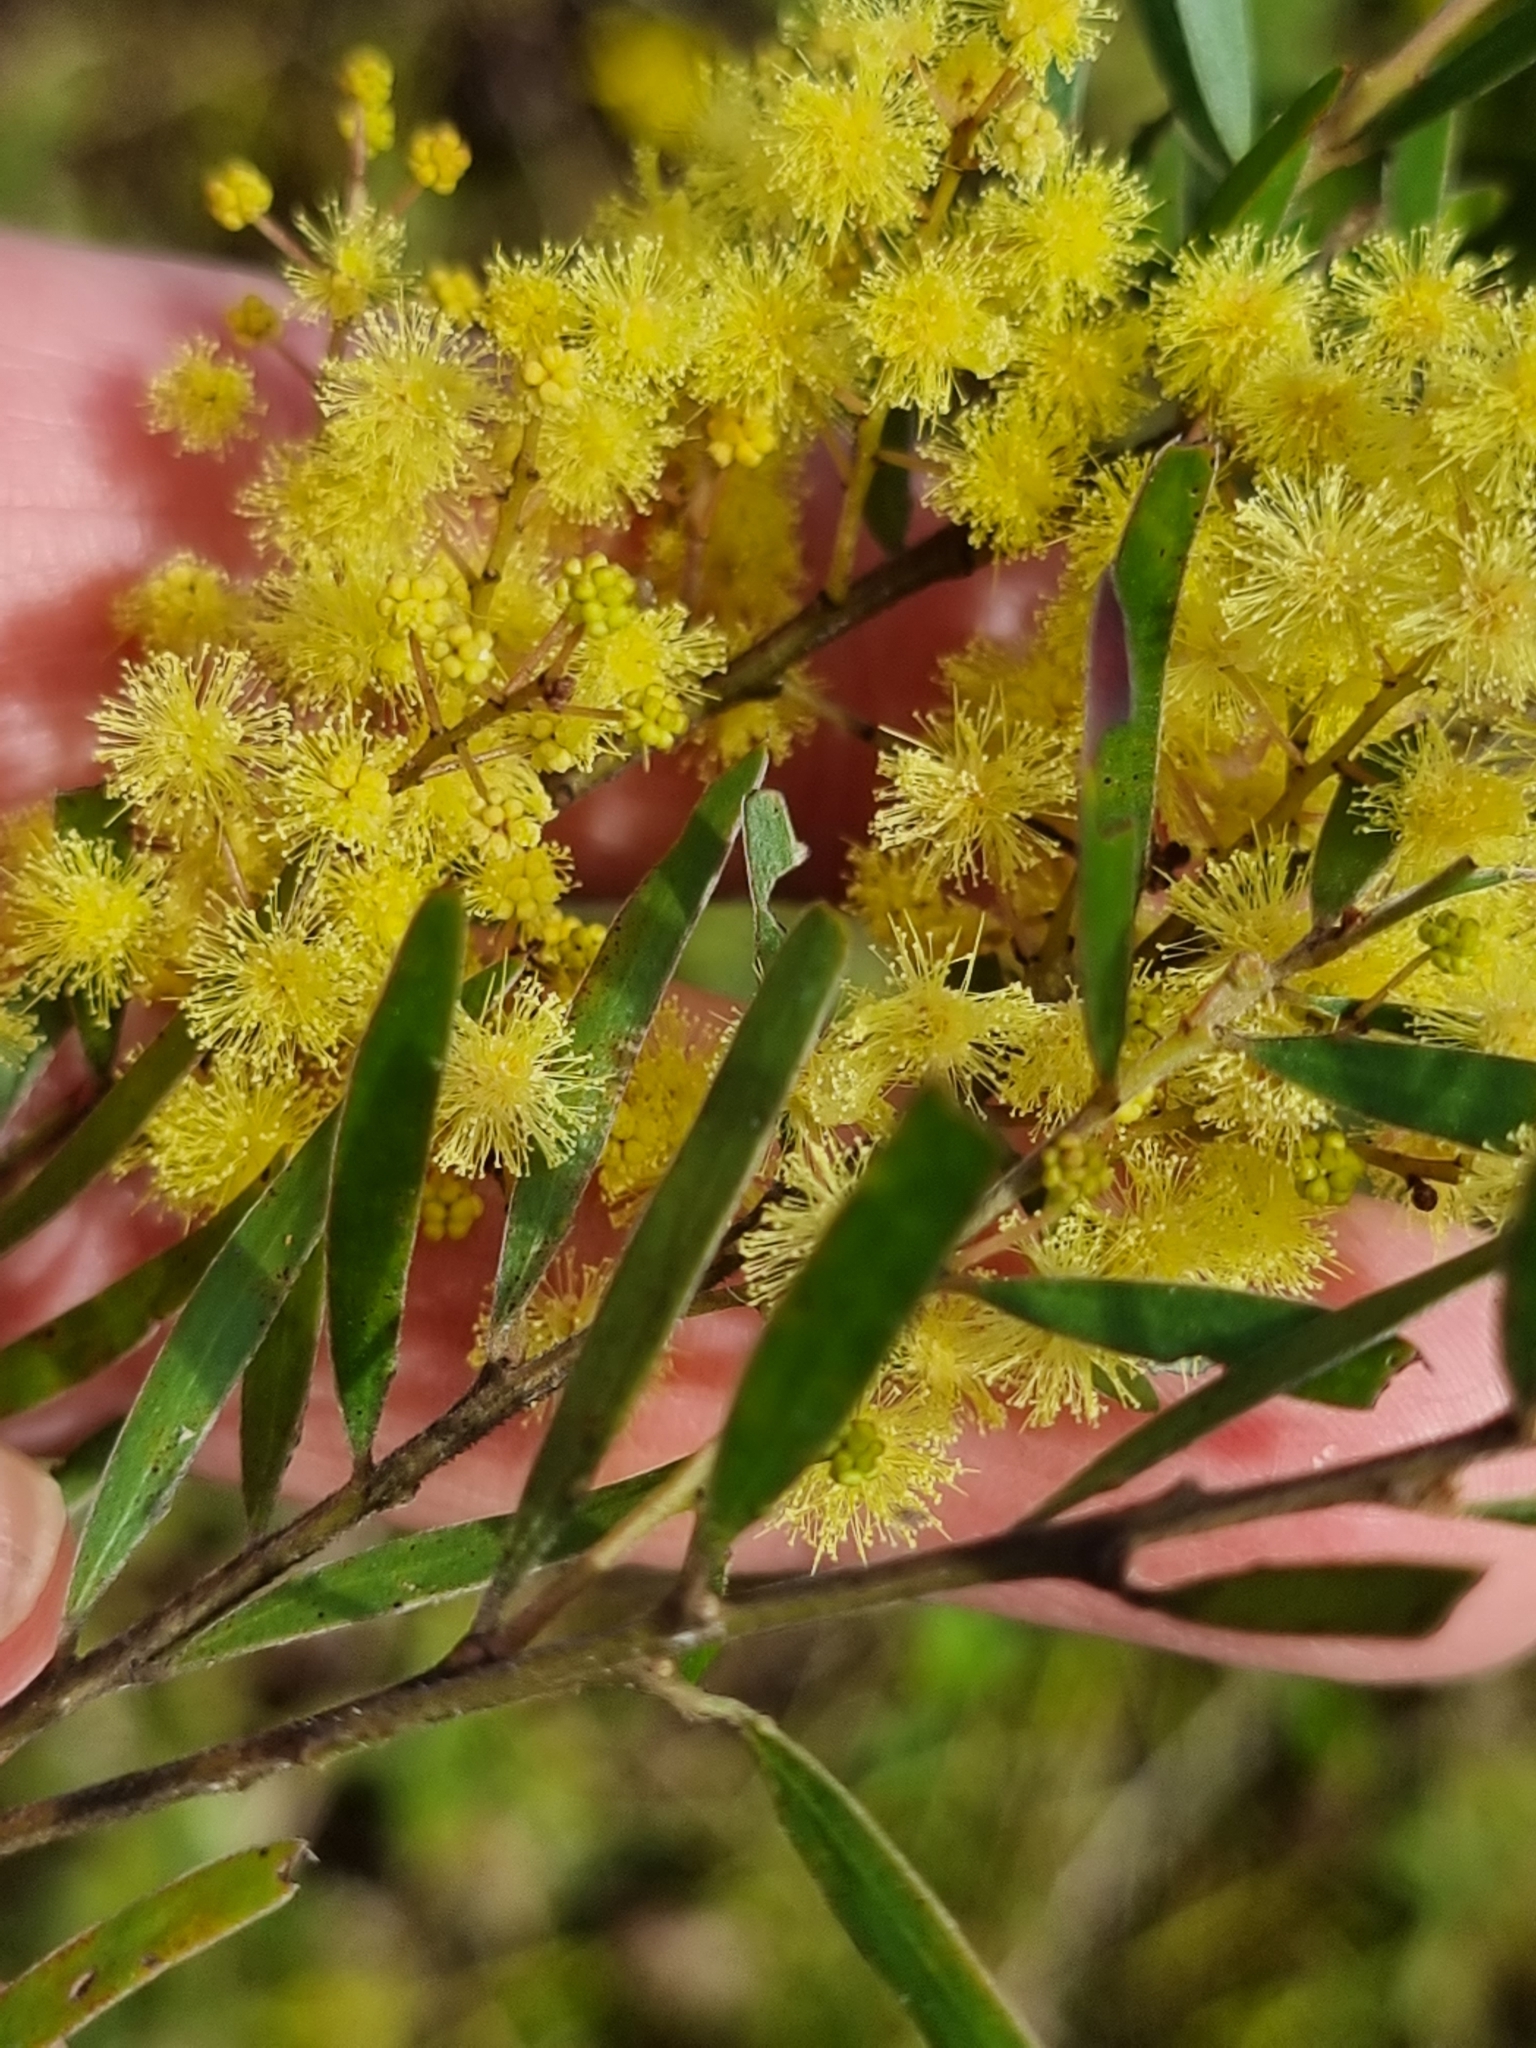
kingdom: Plantae
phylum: Tracheophyta
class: Magnoliopsida
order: Fabales
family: Fabaceae
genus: Acacia
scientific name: Acacia fimbriata
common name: Brisbane golden wattle
